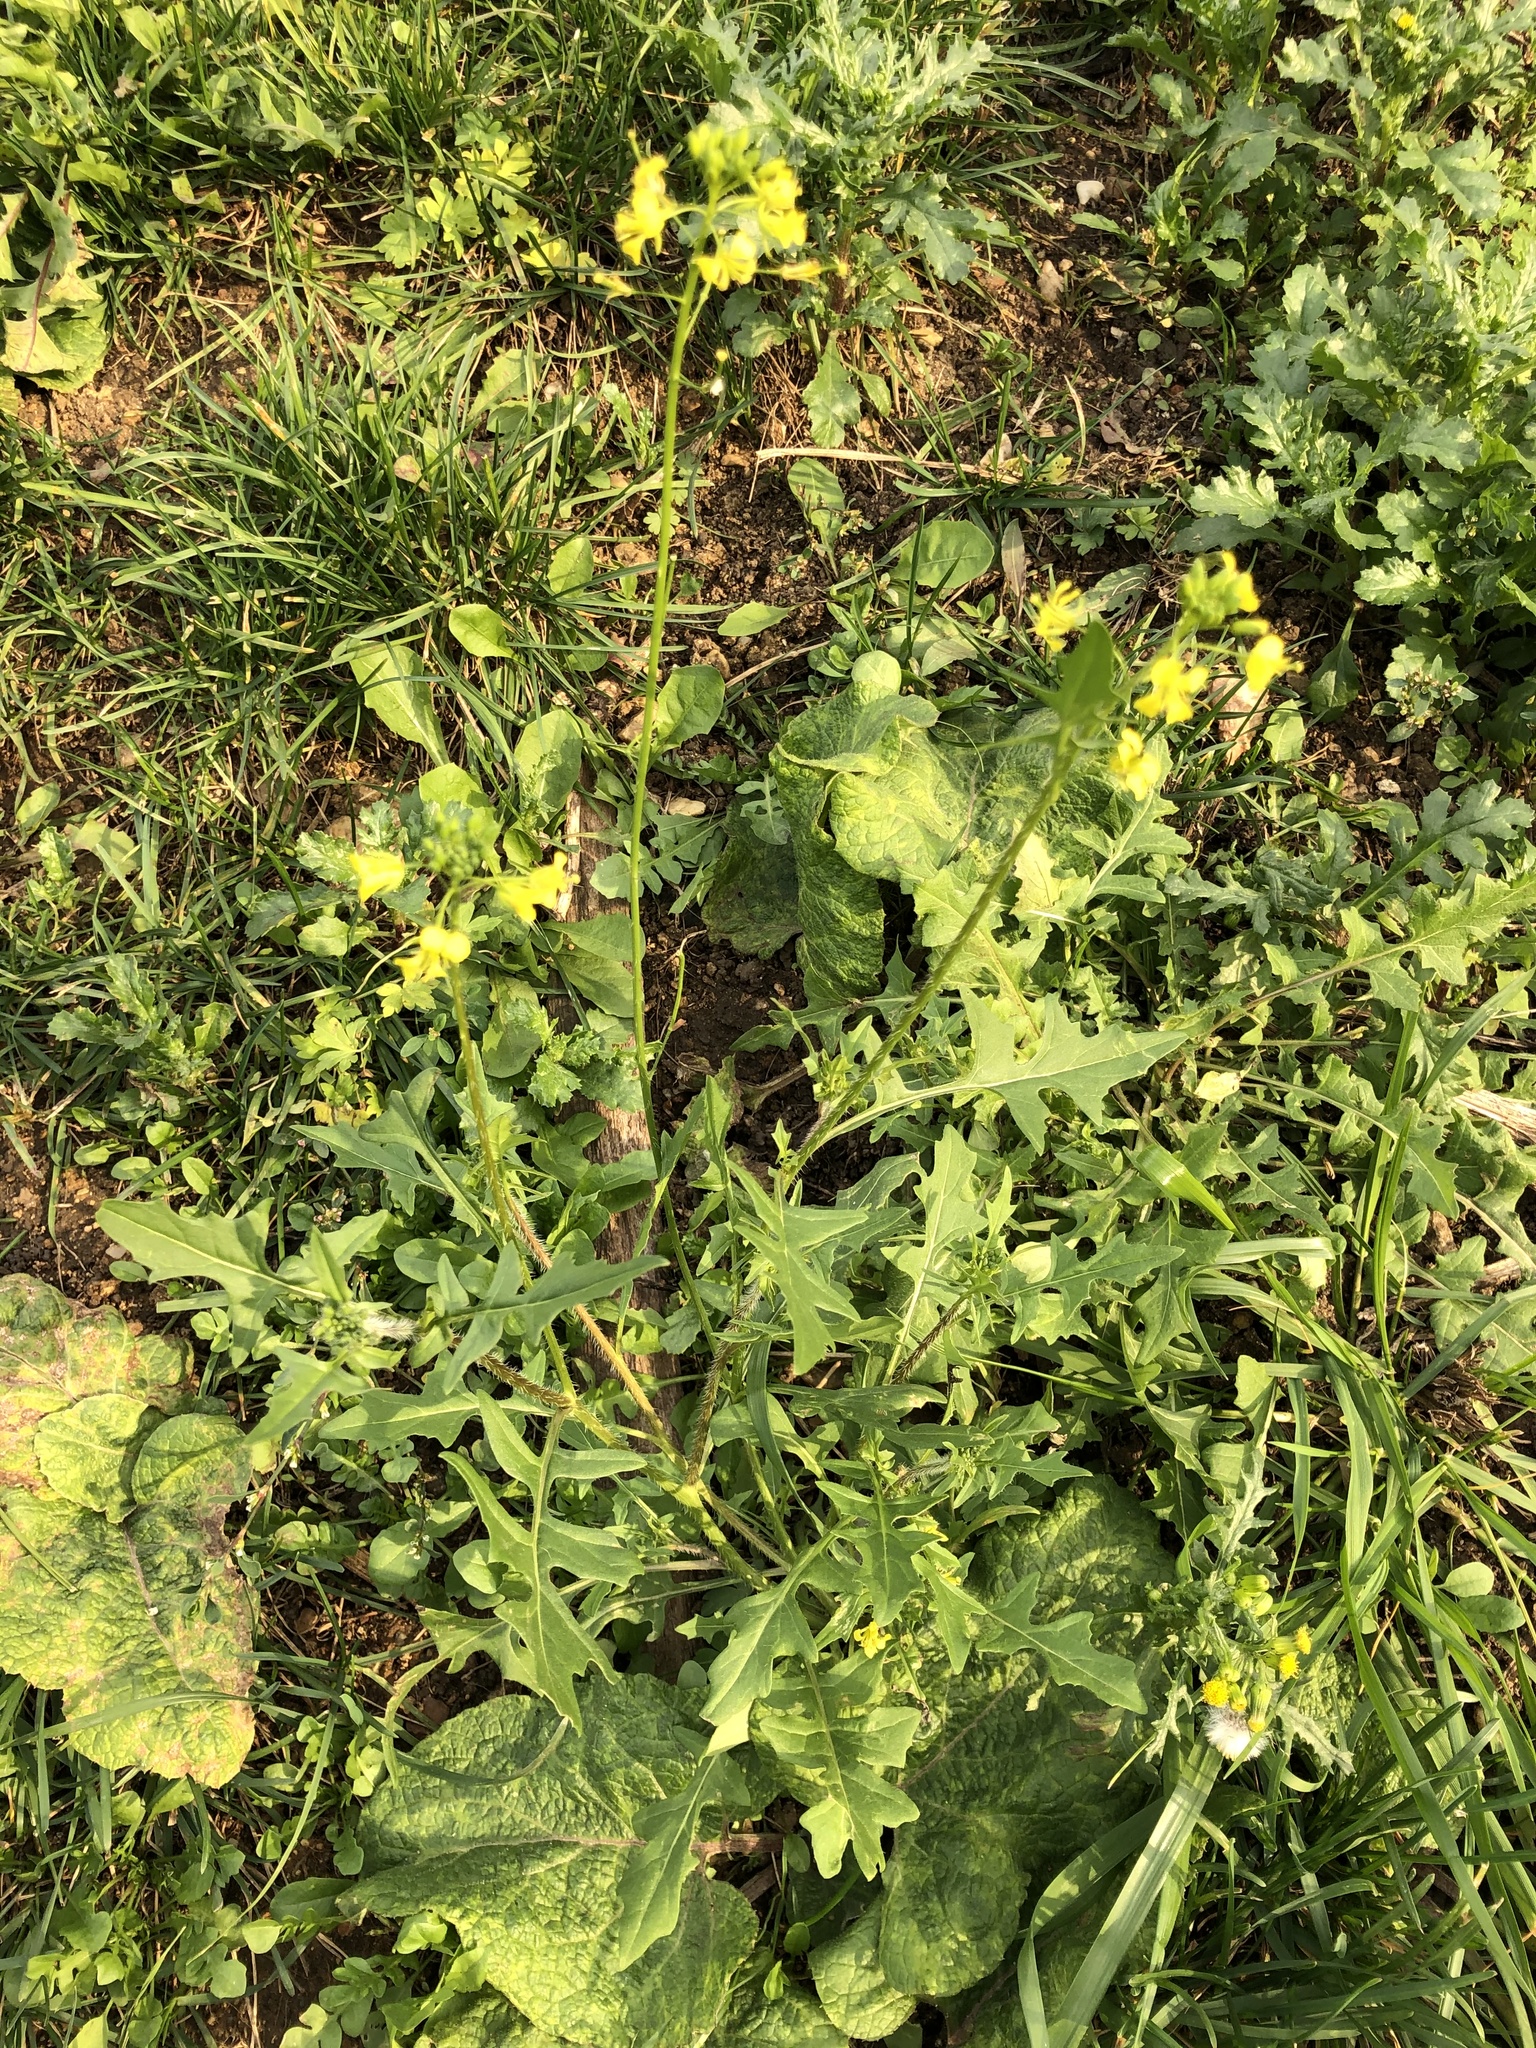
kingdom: Plantae
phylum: Tracheophyta
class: Magnoliopsida
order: Brassicales
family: Brassicaceae
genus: Sisymbrium
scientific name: Sisymbrium loeselii
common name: False london-rocket
